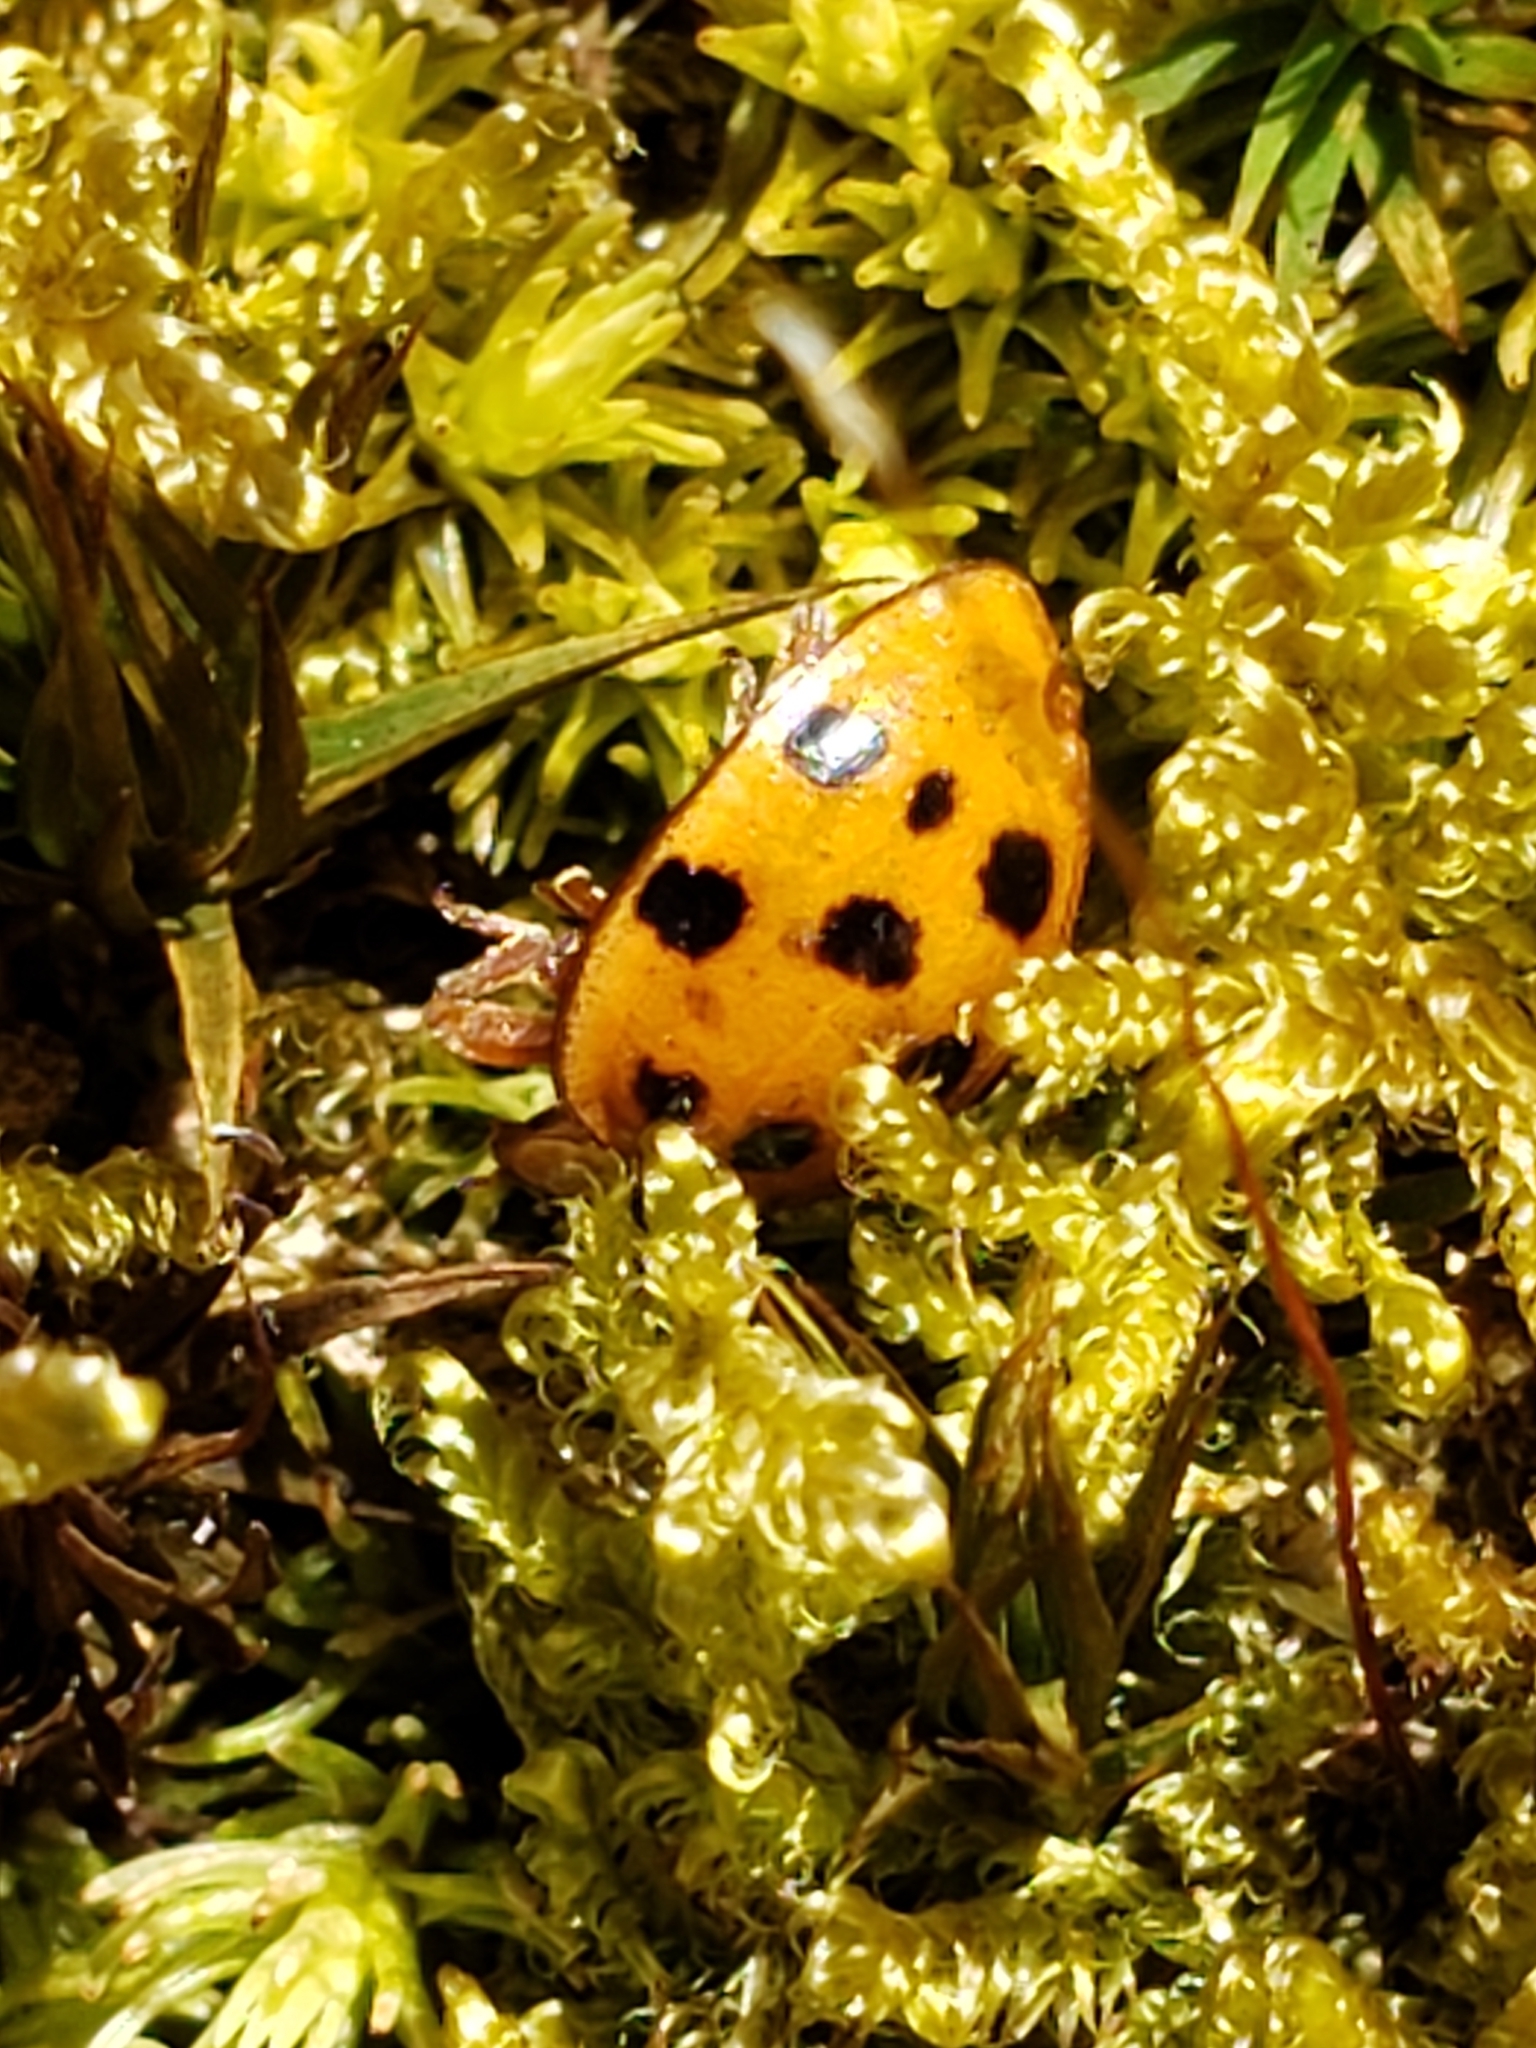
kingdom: Animalia
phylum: Arthropoda
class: Insecta
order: Coleoptera
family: Coccinellidae
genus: Harmonia
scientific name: Harmonia axyridis
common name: Harlequin ladybird
